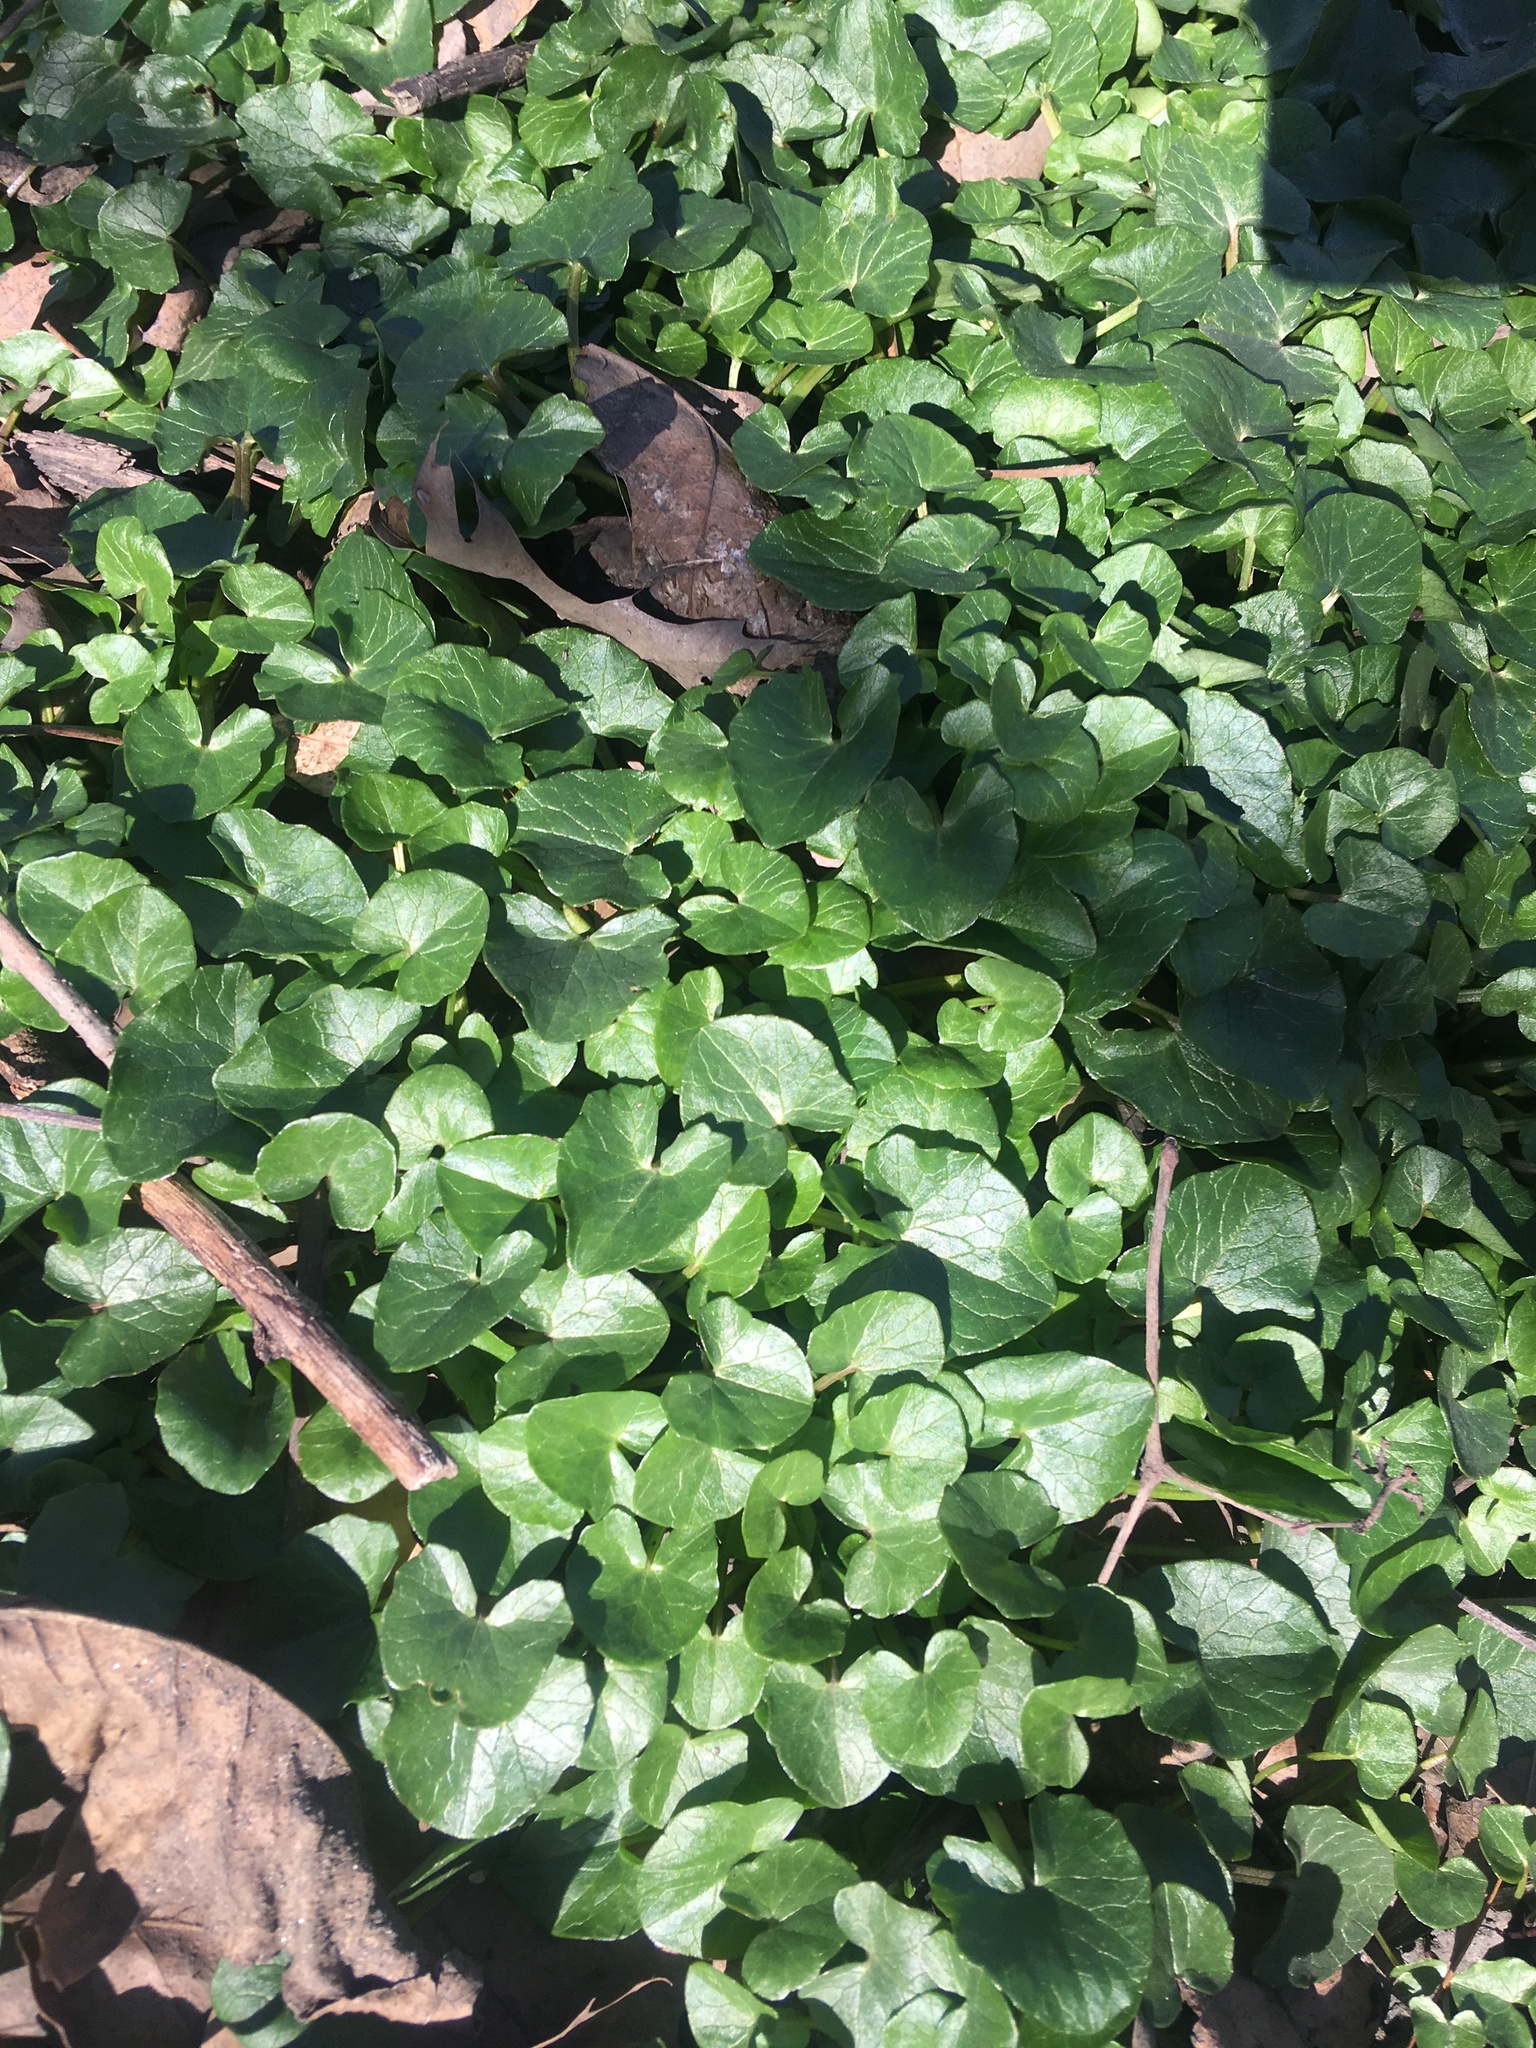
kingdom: Plantae
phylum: Tracheophyta
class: Magnoliopsida
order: Ranunculales
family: Ranunculaceae
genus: Ficaria
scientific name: Ficaria verna
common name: Lesser celandine
